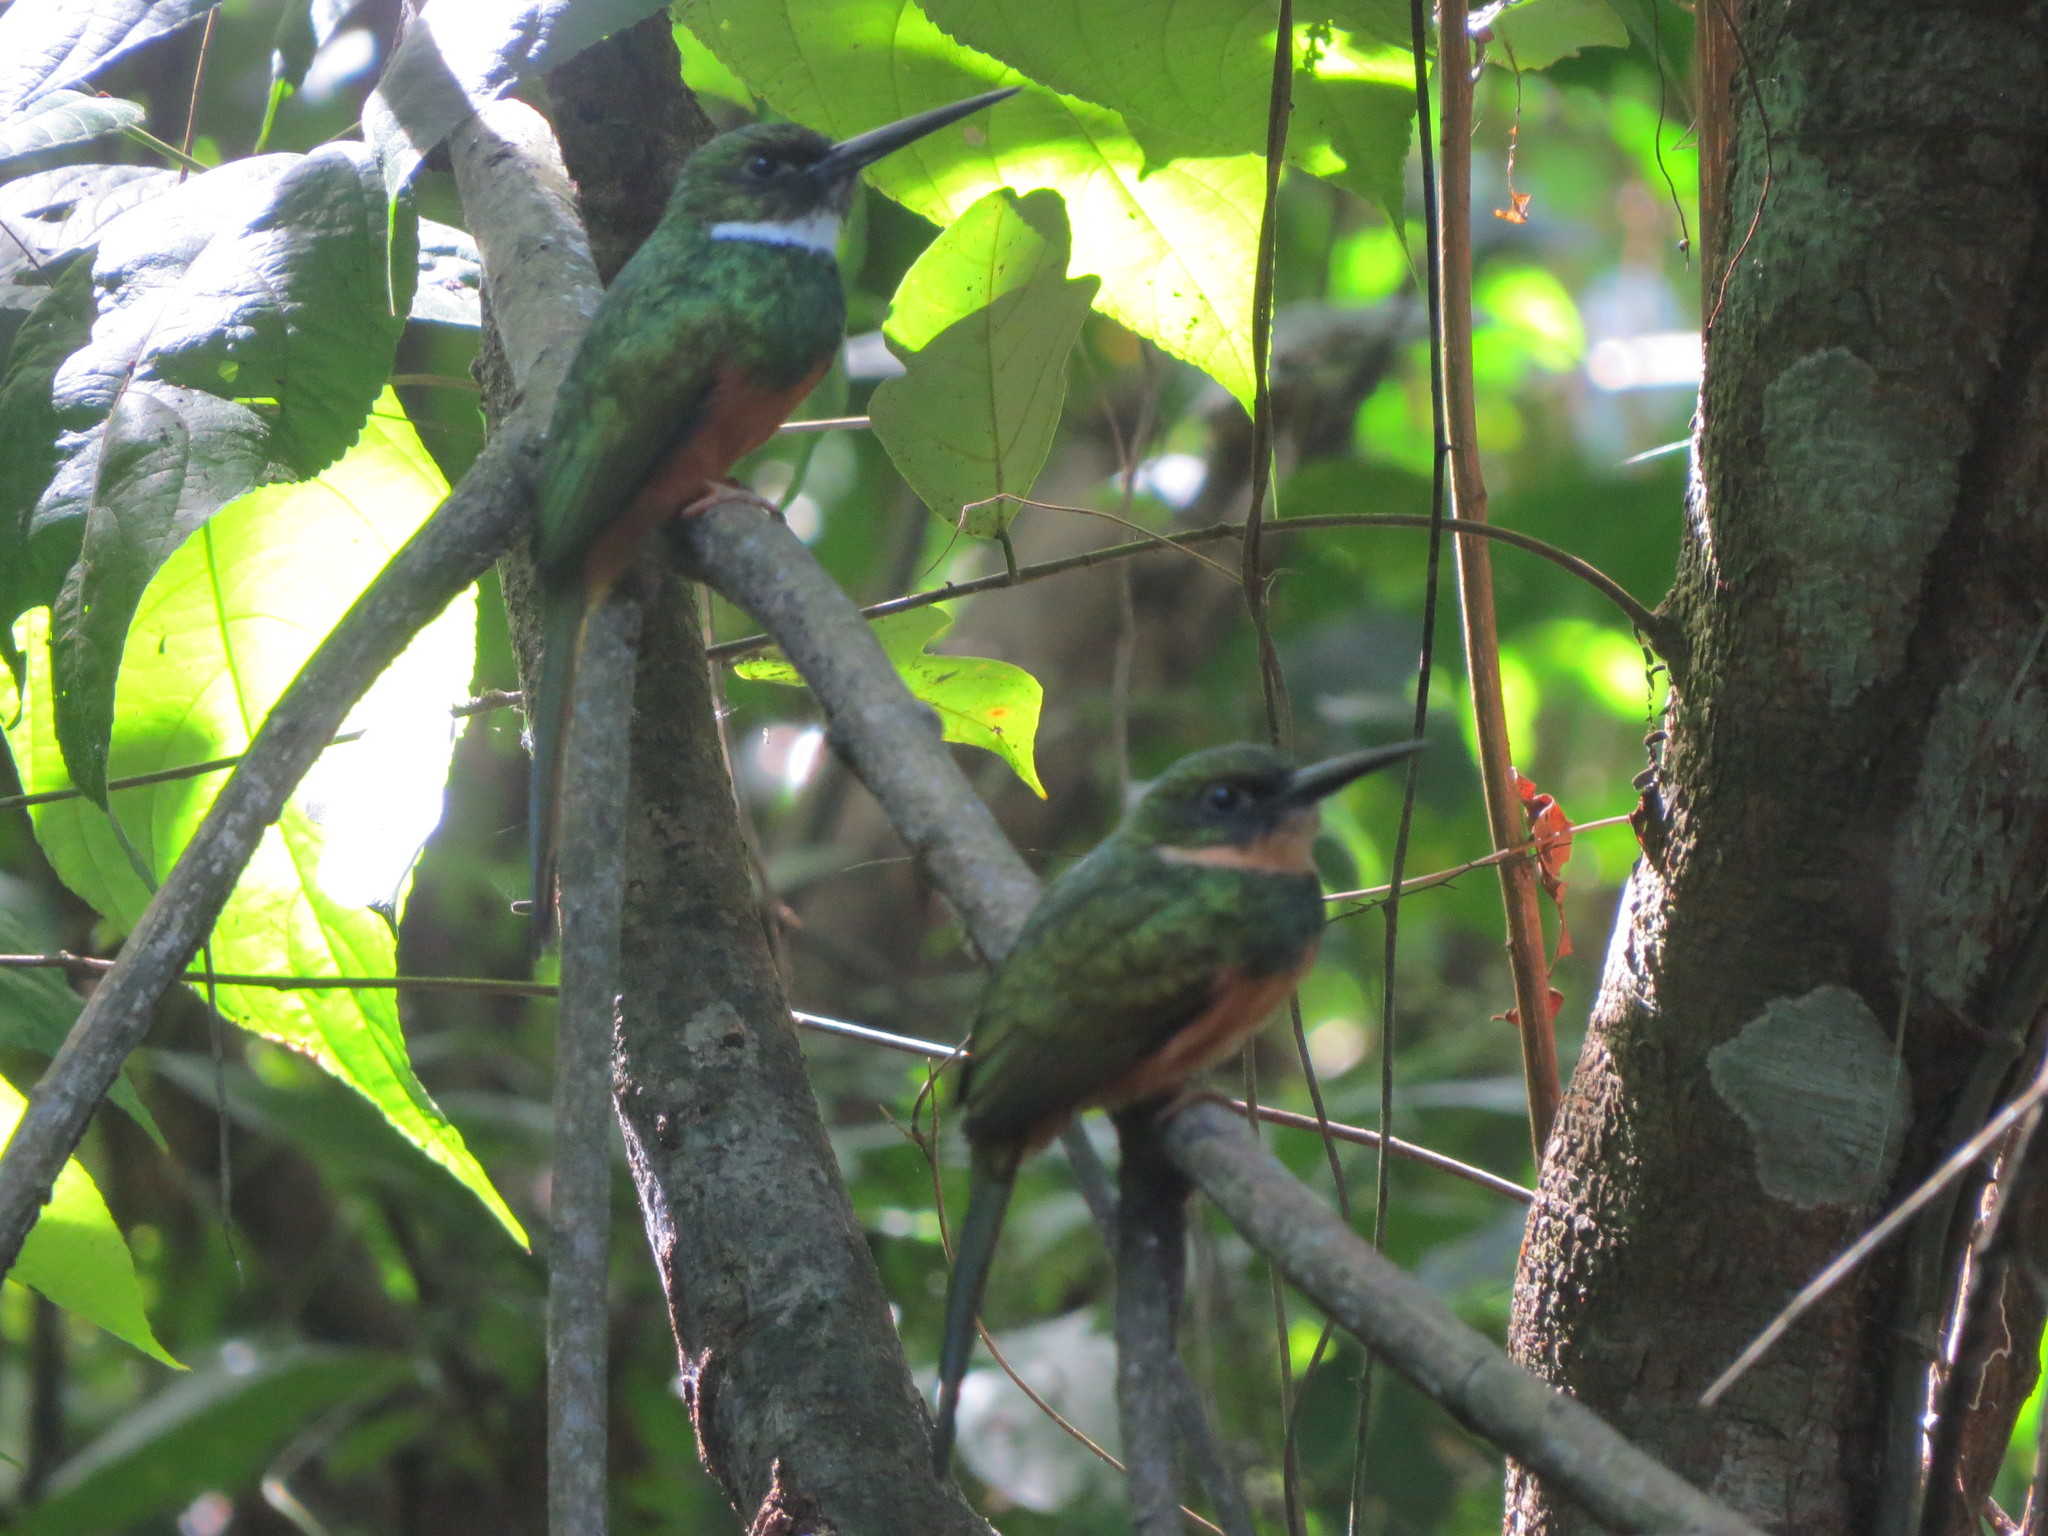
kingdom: Animalia
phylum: Chordata
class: Aves
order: Piciformes
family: Galbulidae
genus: Galbula
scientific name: Galbula ruficauda
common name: Rufous-tailed jacamar
